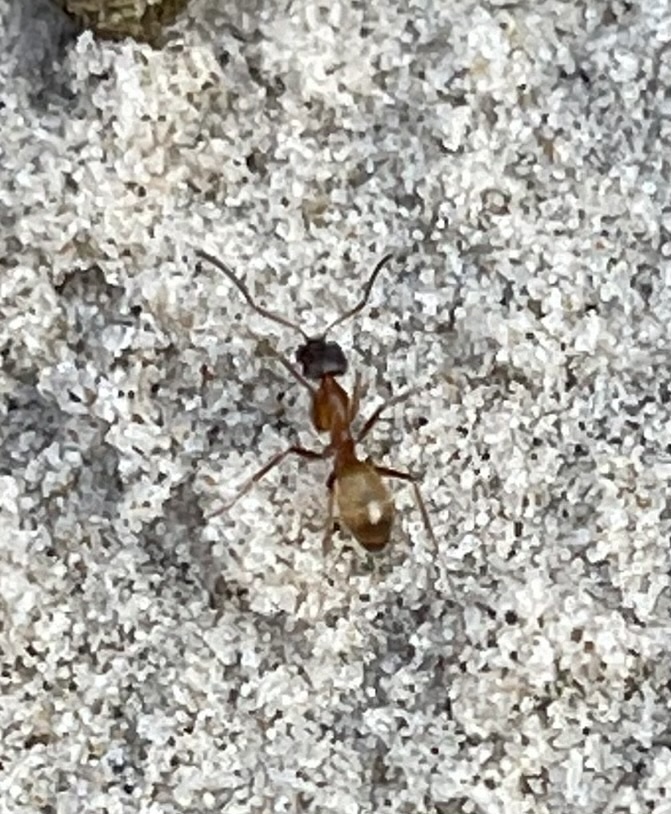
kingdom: Animalia
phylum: Arthropoda
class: Insecta
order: Hymenoptera
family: Formicidae
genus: Dorymyrmex
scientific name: Dorymyrmex flavus
